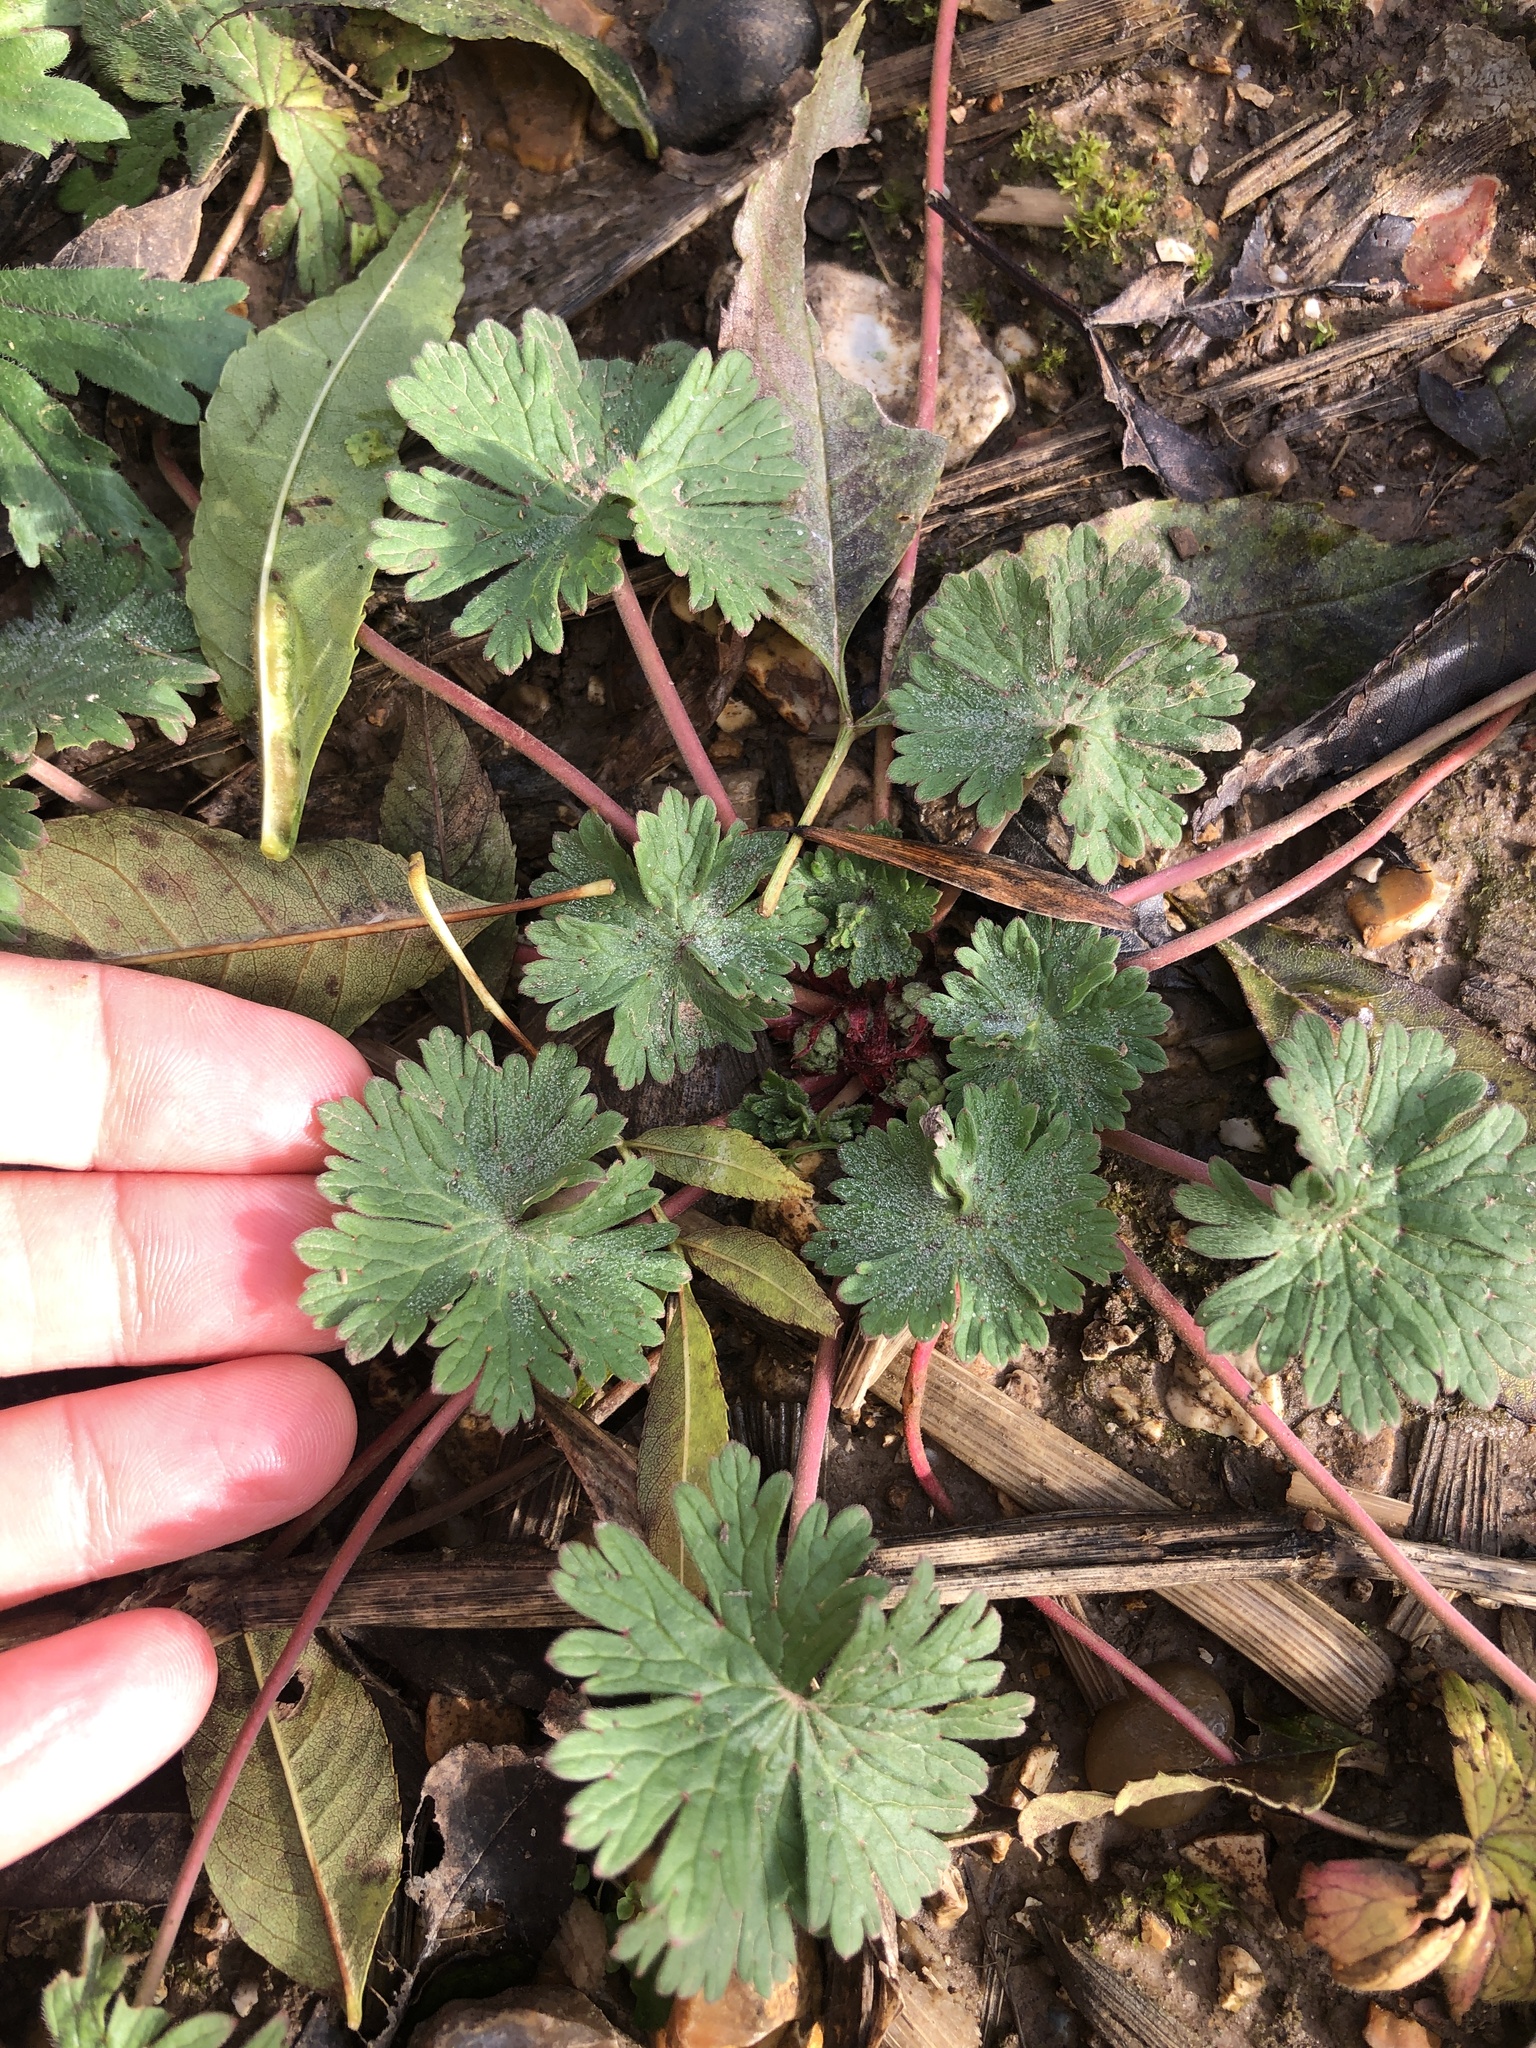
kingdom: Plantae
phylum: Tracheophyta
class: Magnoliopsida
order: Geraniales
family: Geraniaceae
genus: Geranium
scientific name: Geranium rotundifolium
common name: Round-leaved crane's-bill
